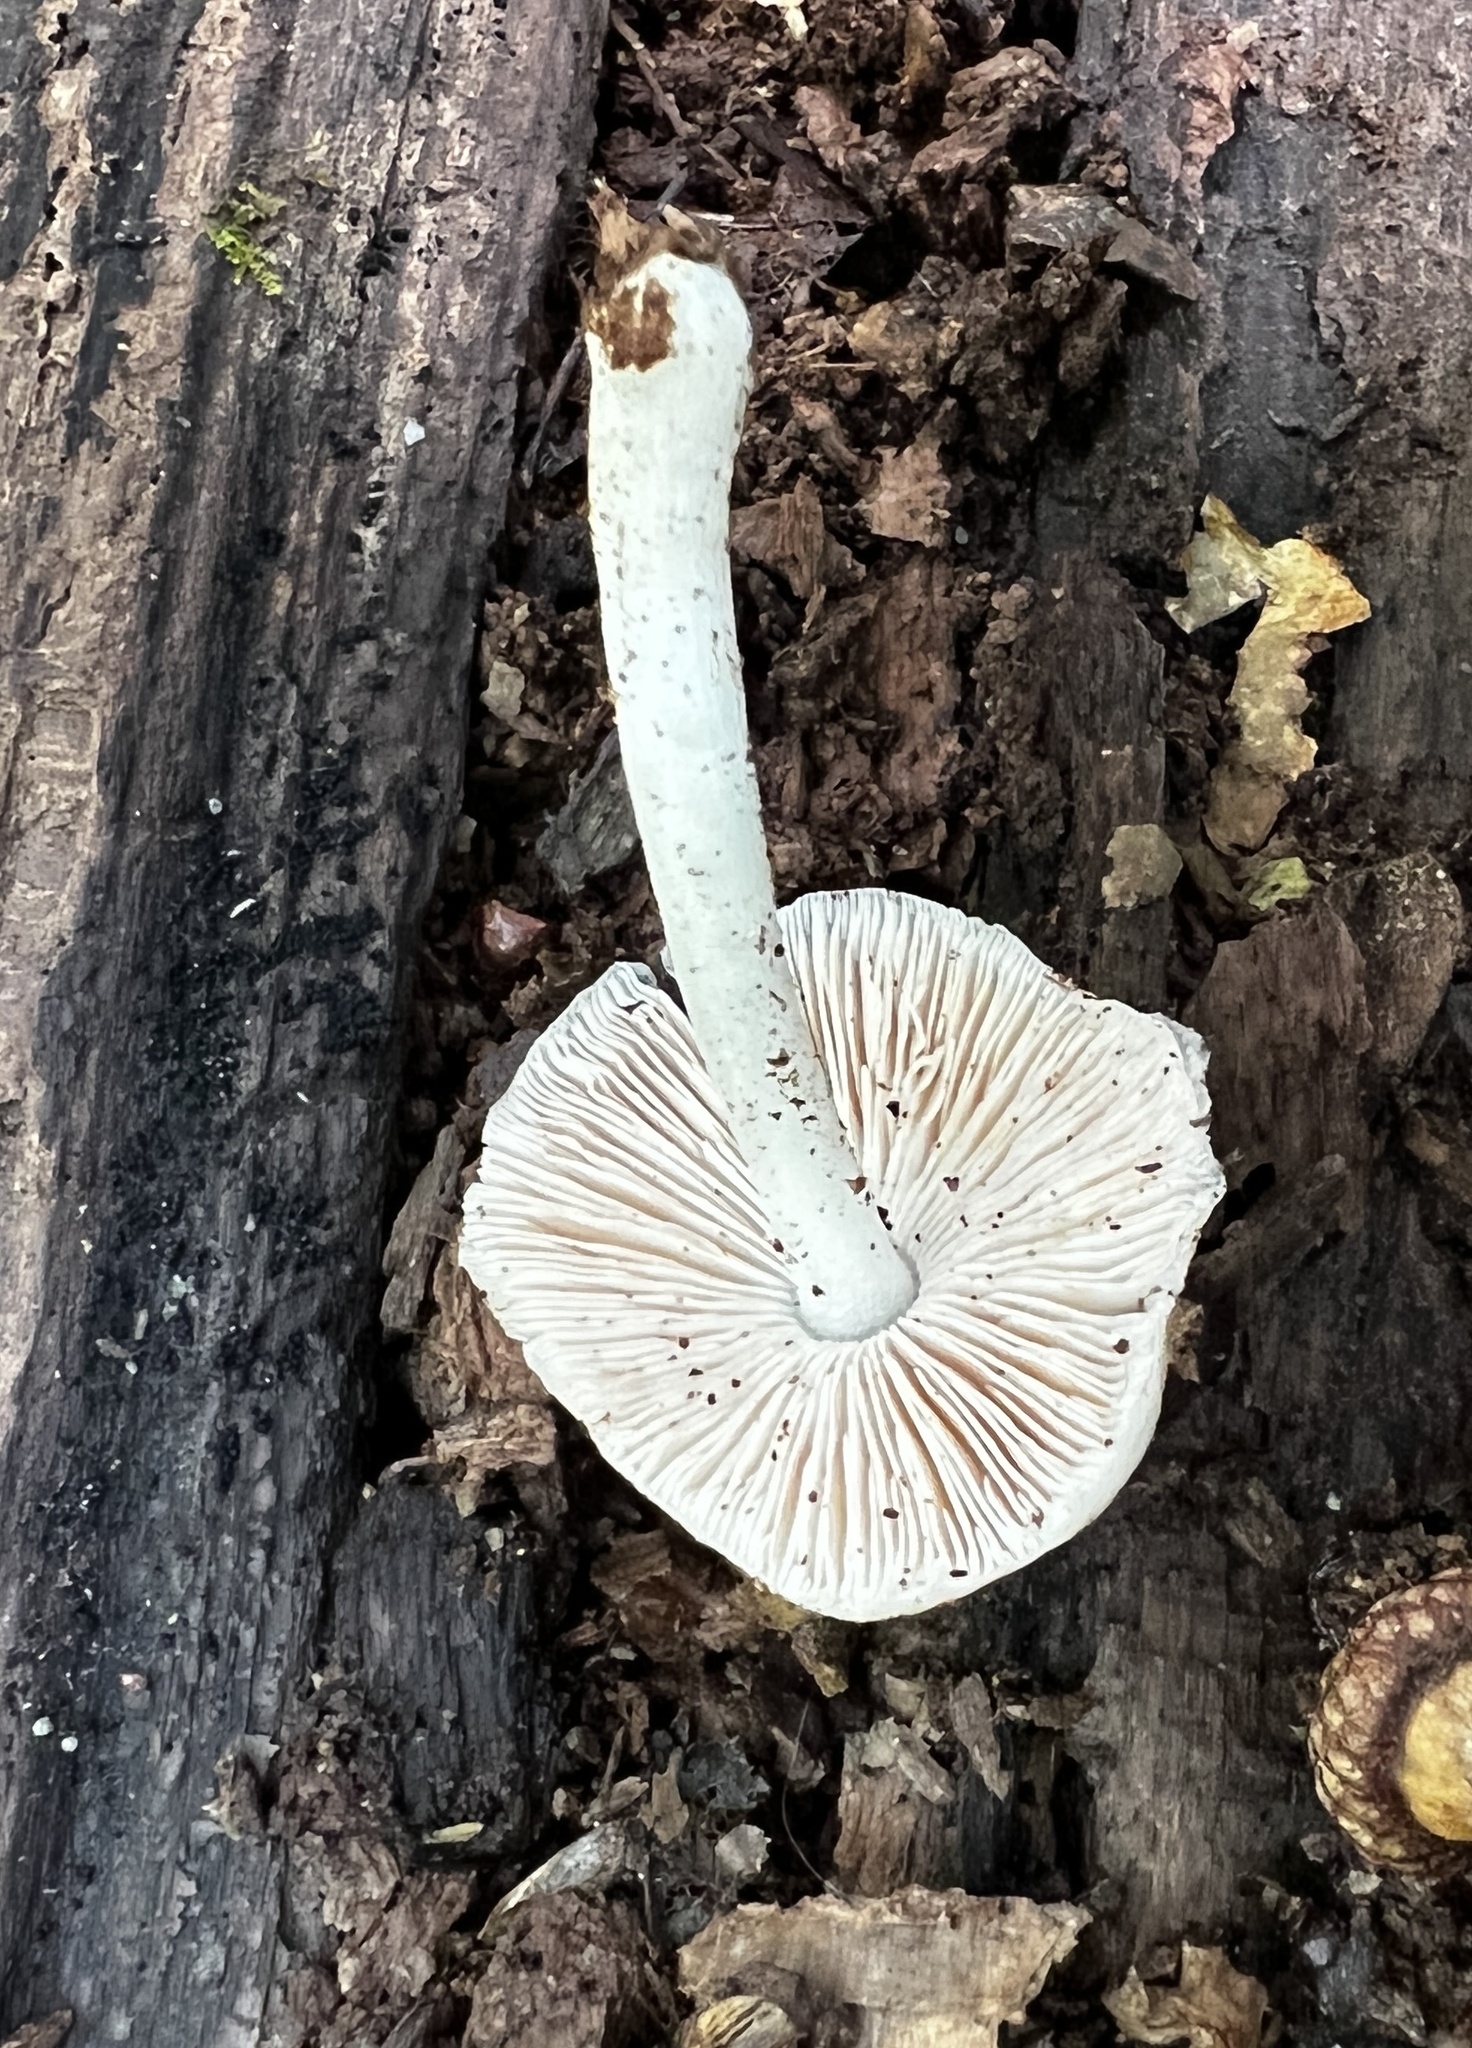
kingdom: Fungi
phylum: Basidiomycota
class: Agaricomycetes
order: Agaricales
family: Pluteaceae
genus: Pluteus
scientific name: Pluteus pellitus
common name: Ghost shield
